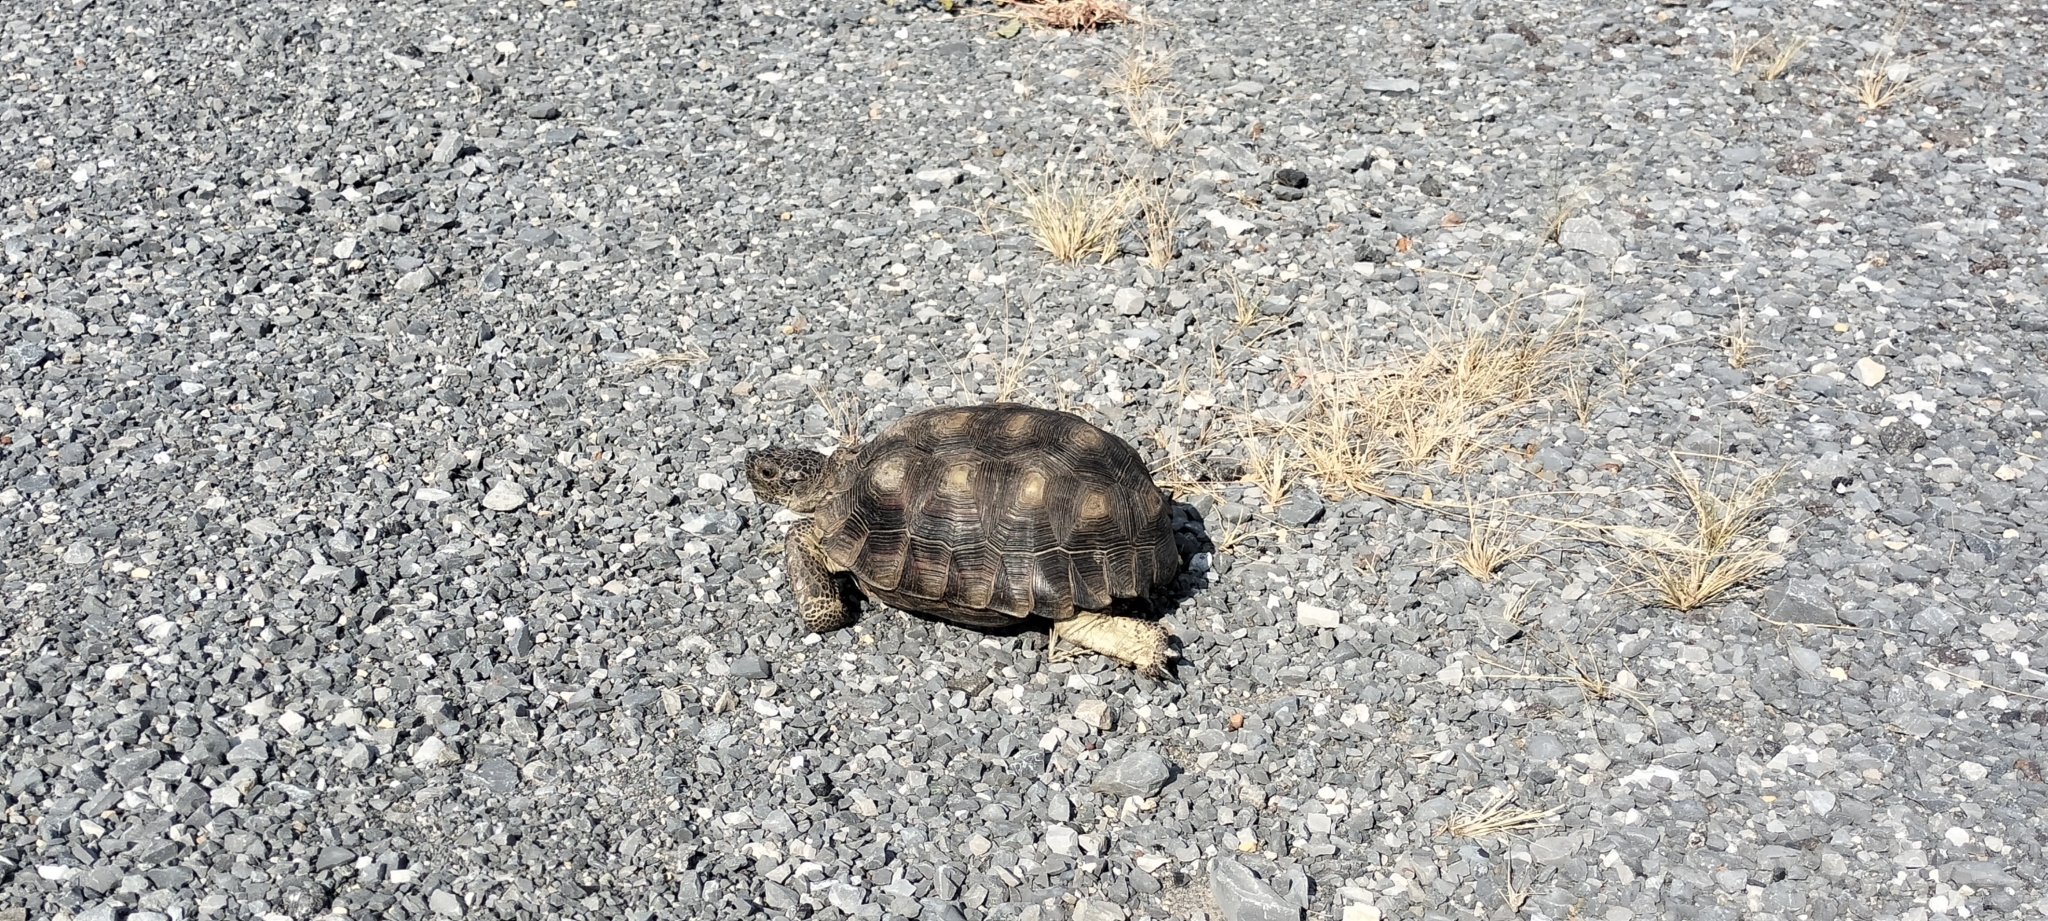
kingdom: Animalia
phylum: Chordata
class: Testudines
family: Testudinidae
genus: Gopherus
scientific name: Gopherus berlandieri
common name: Texas (gopher )tortoise
